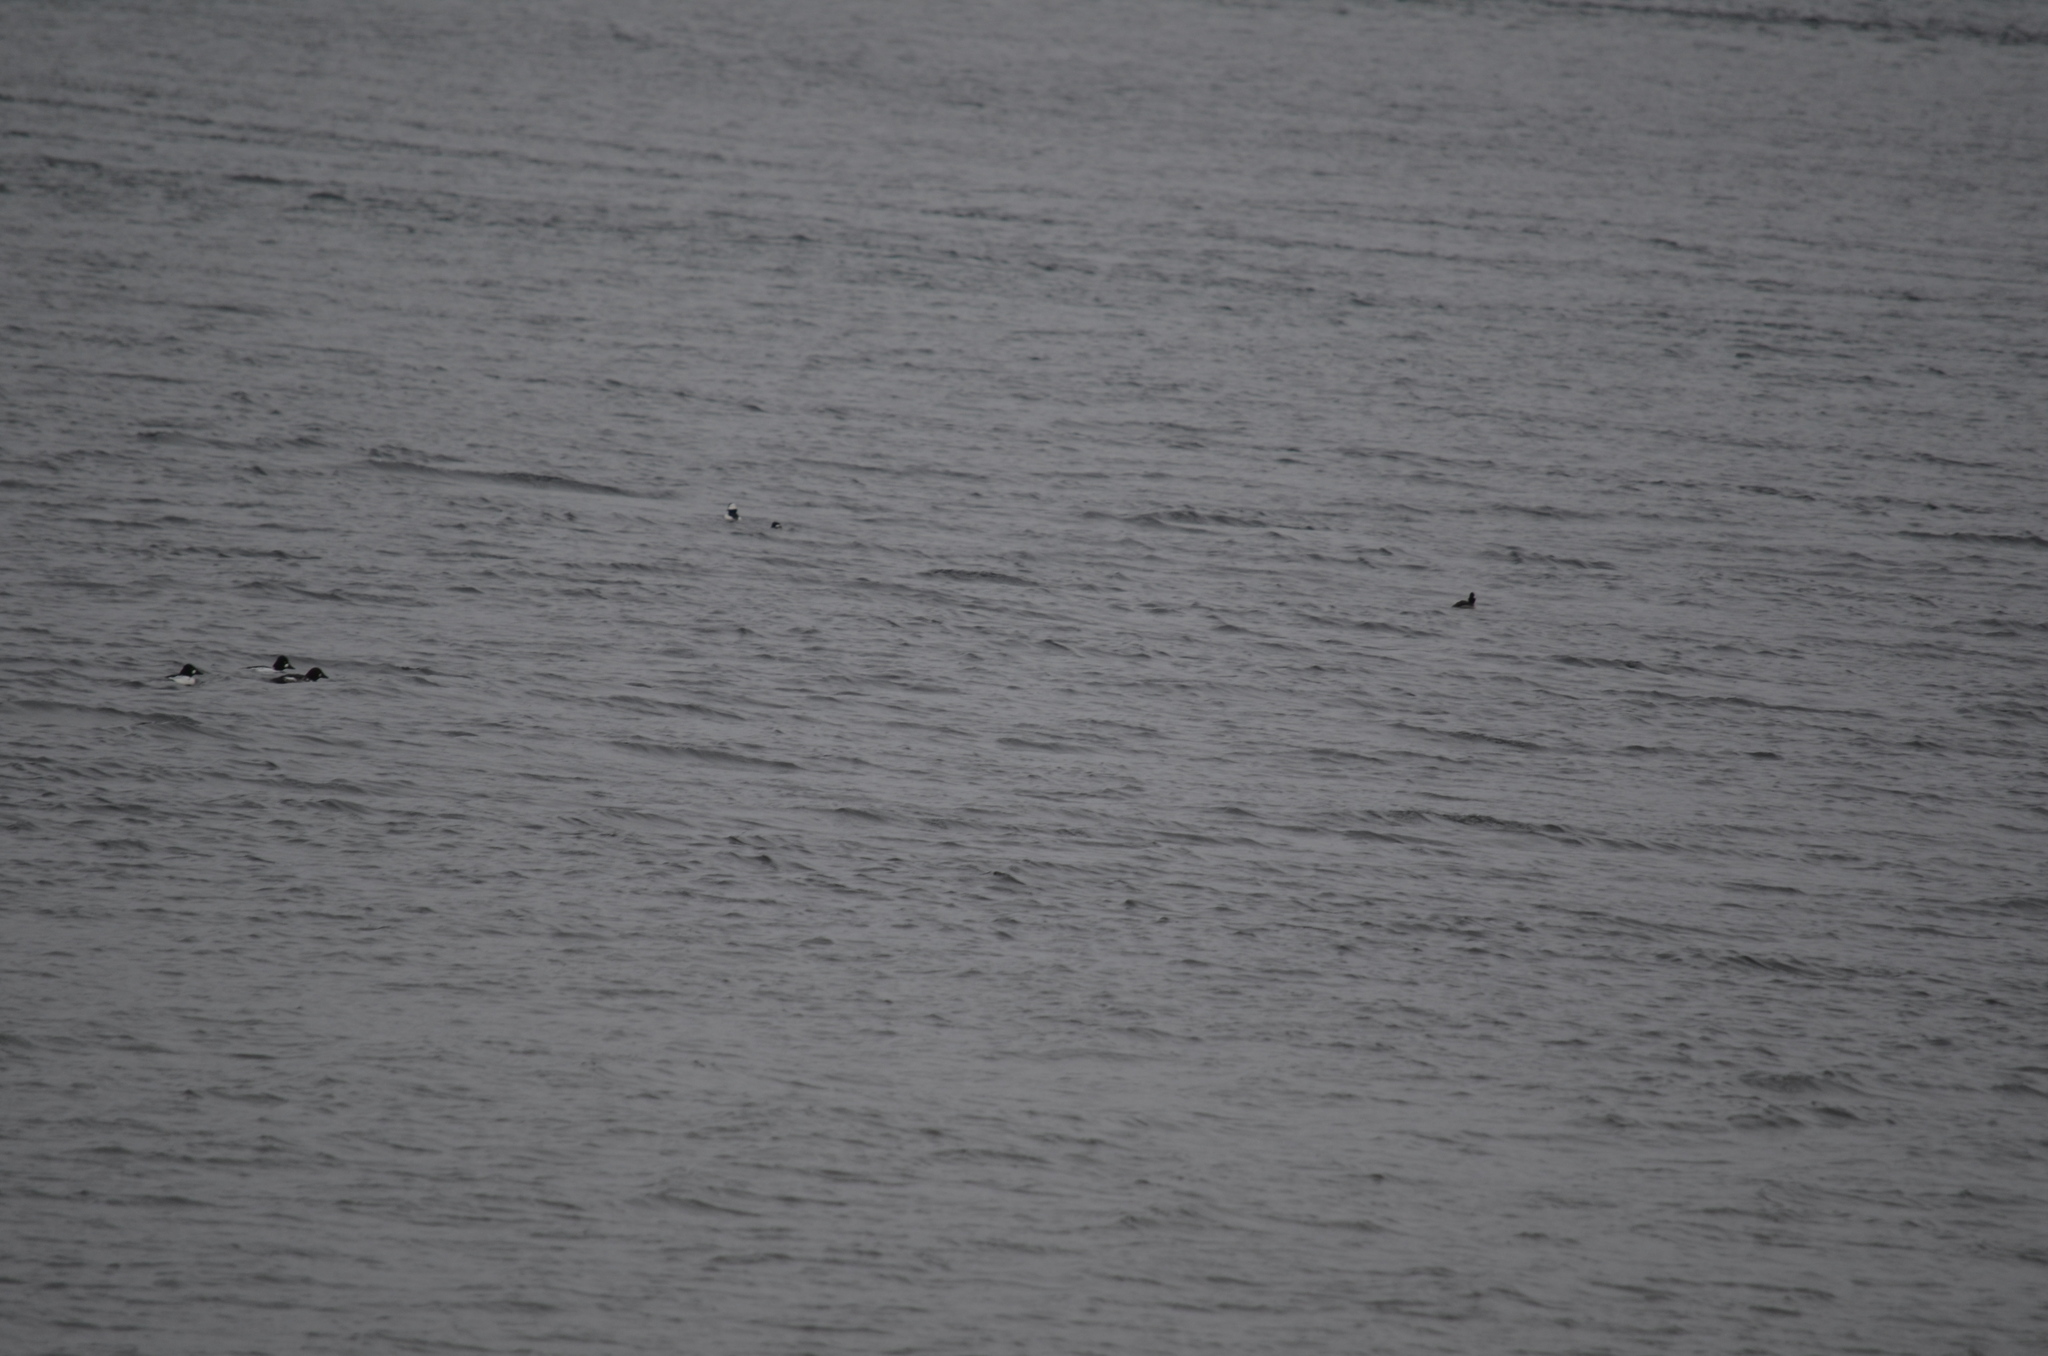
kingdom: Animalia
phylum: Chordata
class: Aves
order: Anseriformes
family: Anatidae
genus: Bucephala
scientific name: Bucephala albeola
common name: Bufflehead
